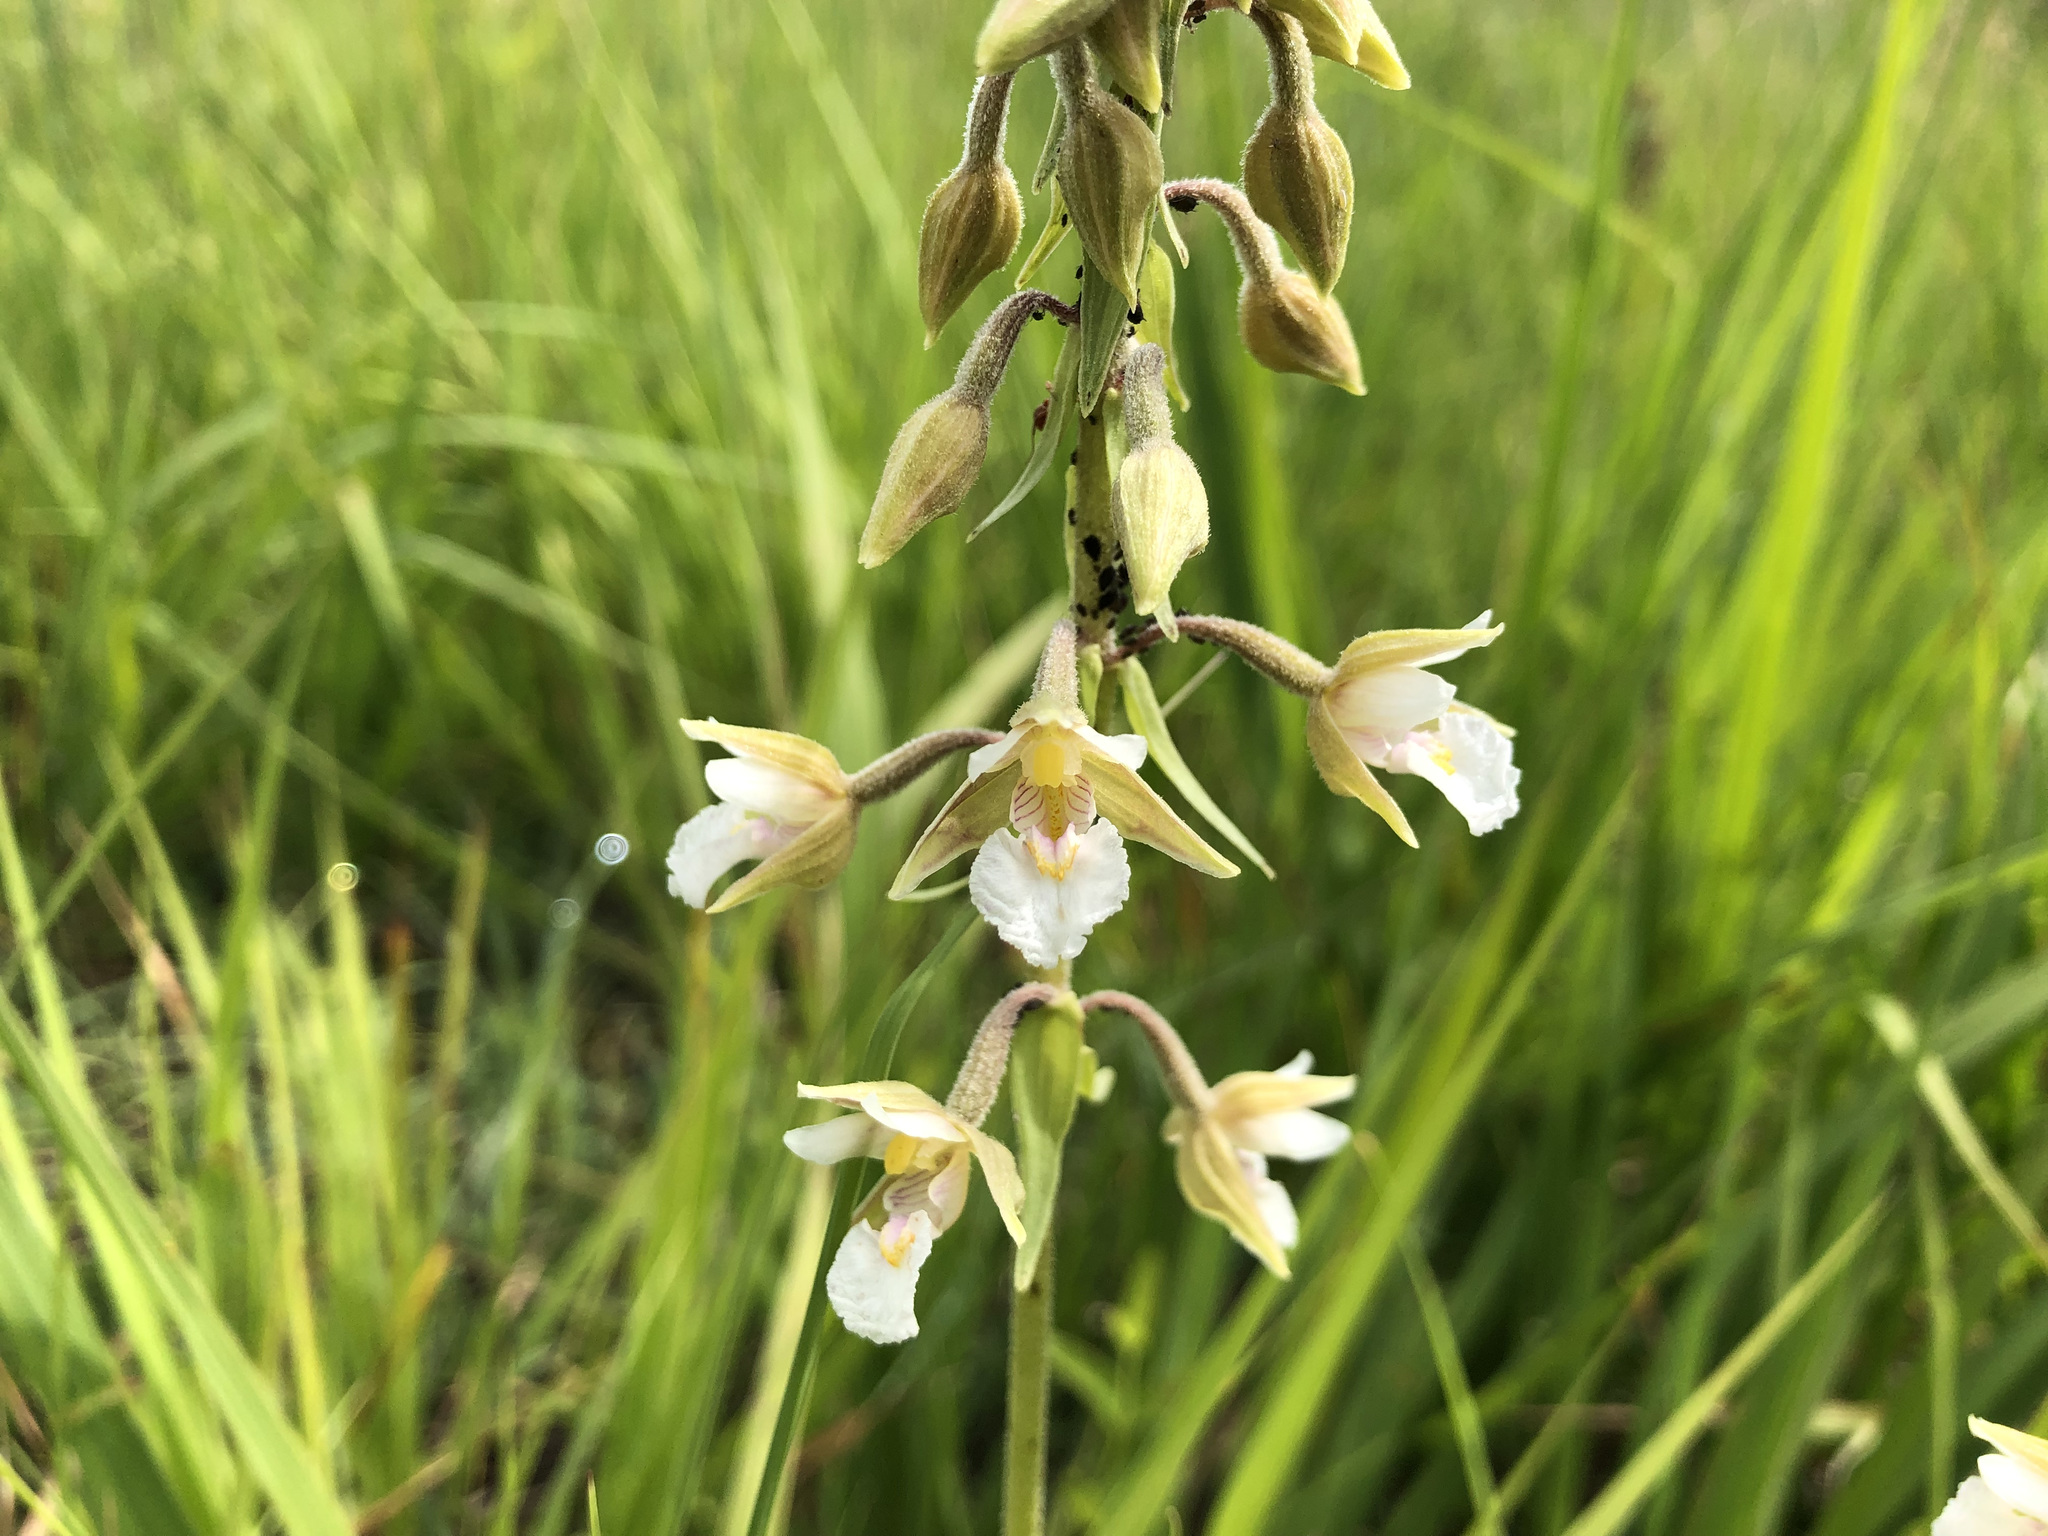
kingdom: Plantae
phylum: Tracheophyta
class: Liliopsida
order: Asparagales
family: Orchidaceae
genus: Epipactis
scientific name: Epipactis palustris
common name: Marsh helleborine
